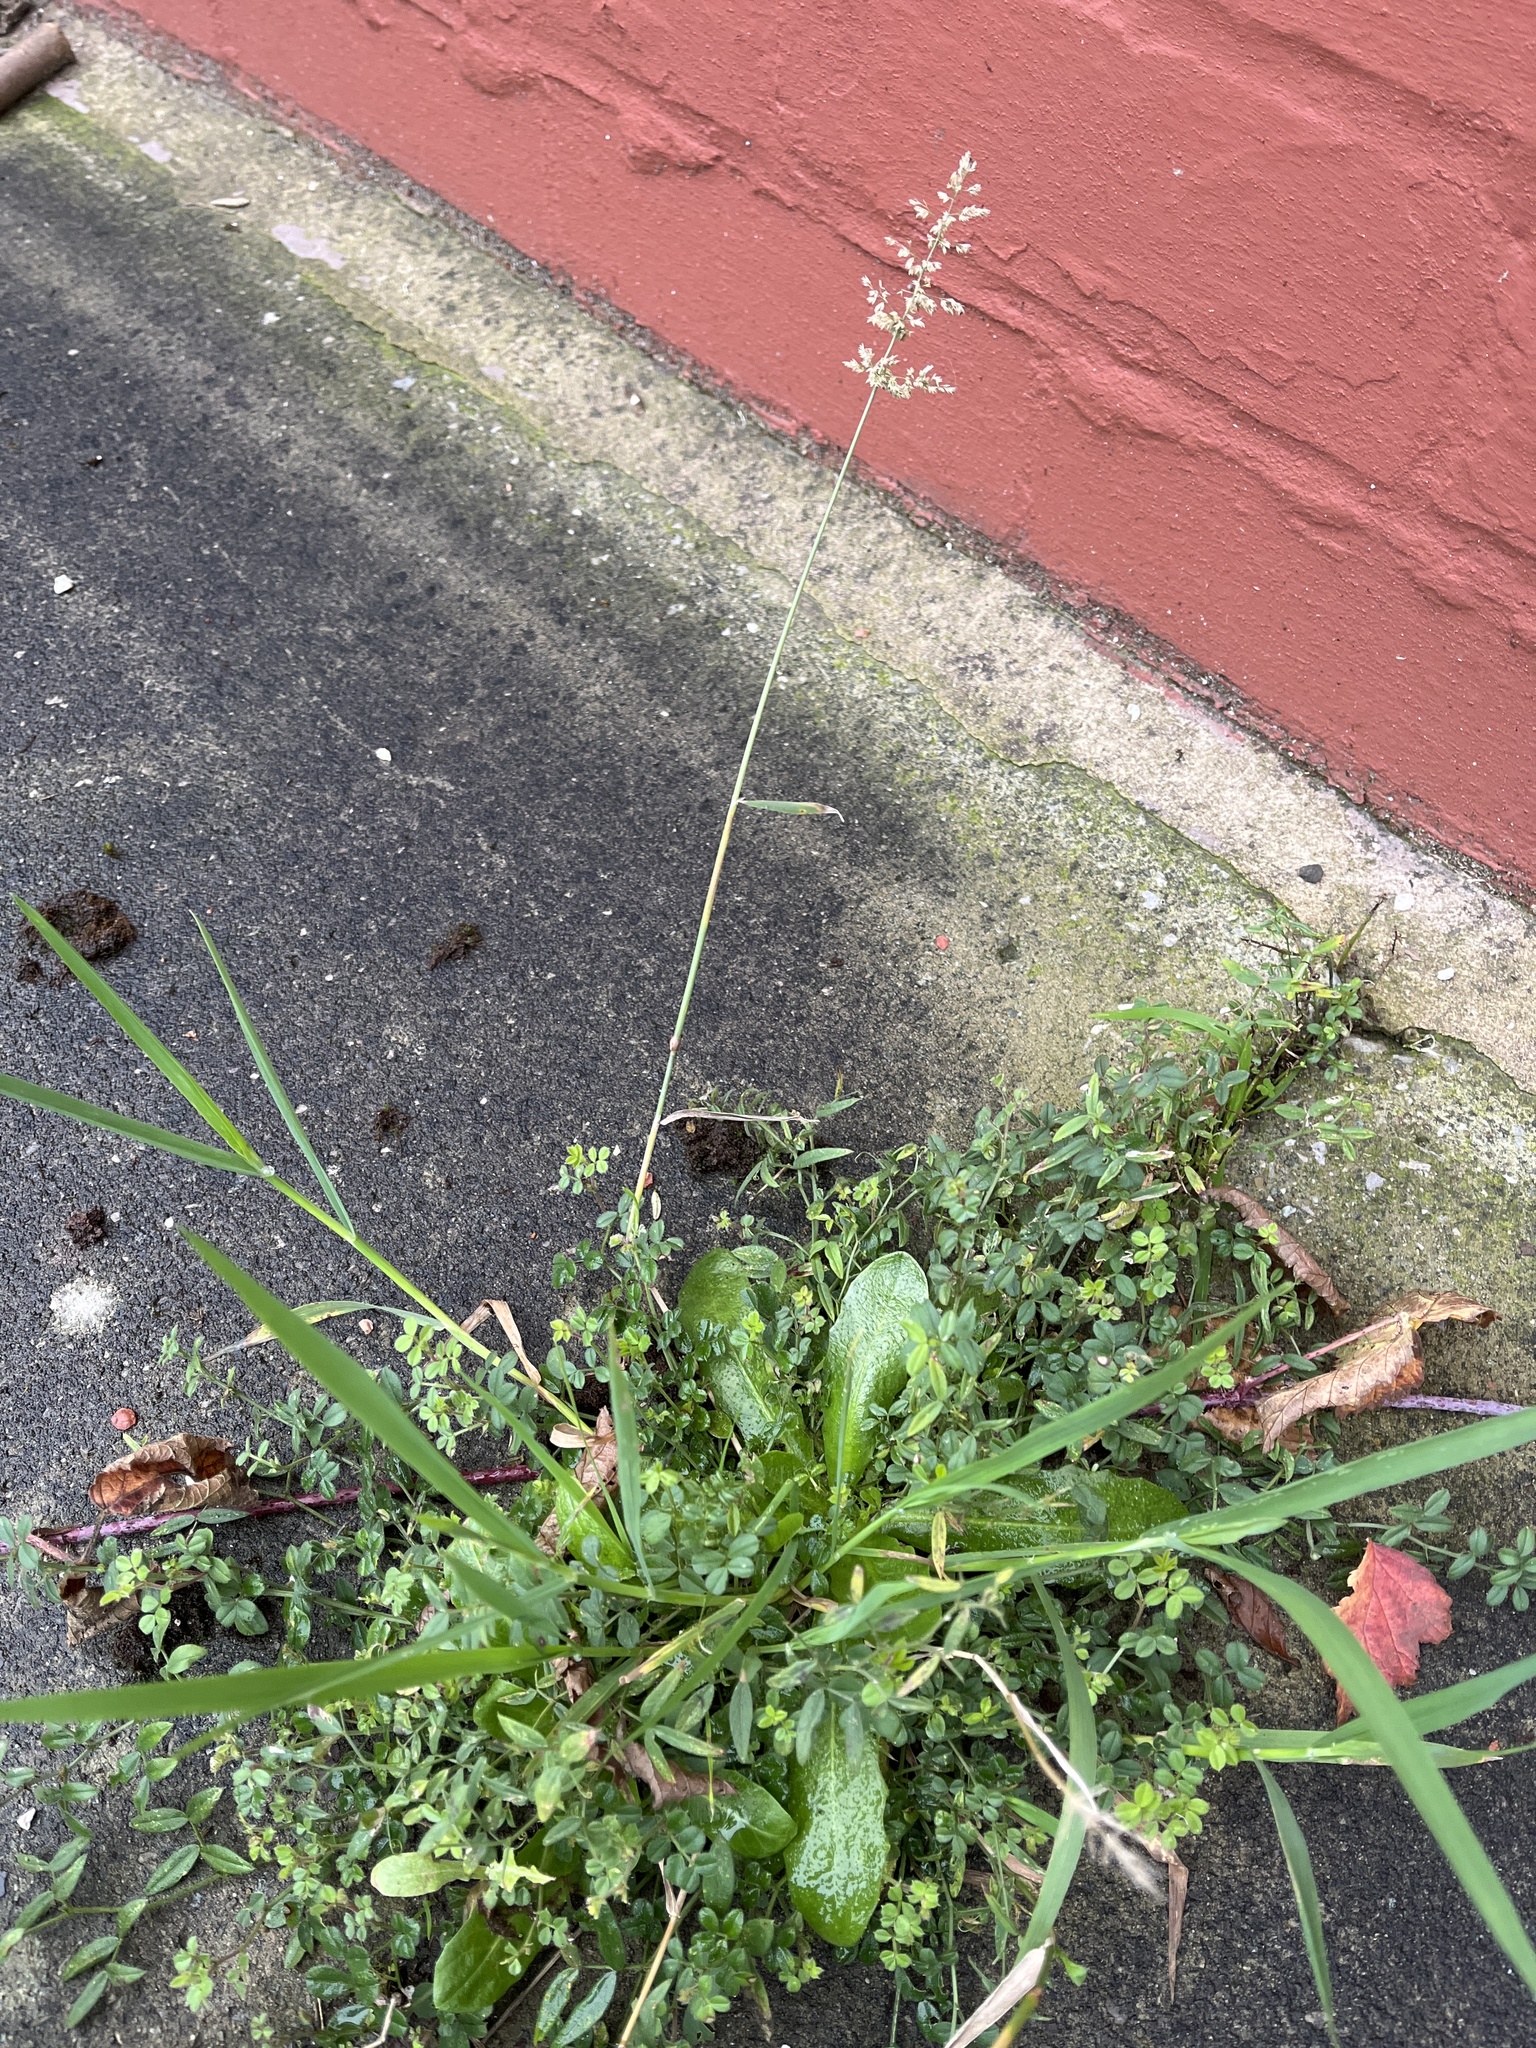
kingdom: Plantae
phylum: Tracheophyta
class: Liliopsida
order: Poales
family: Poaceae
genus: Polypogon
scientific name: Polypogon viridis
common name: Water bent
